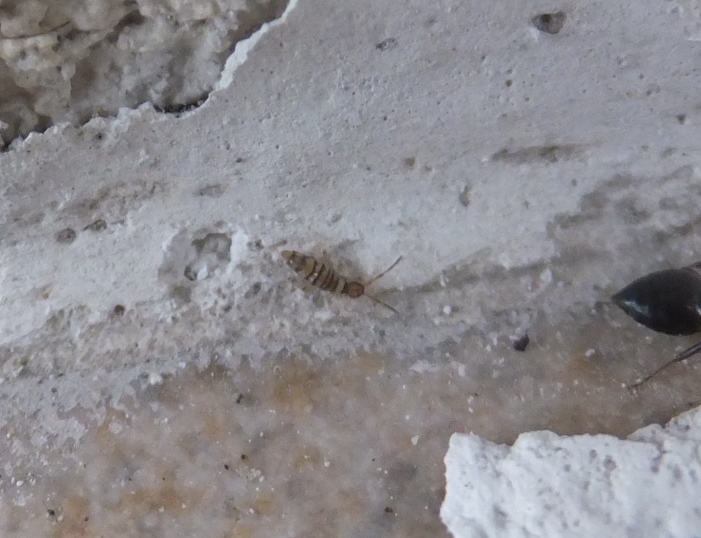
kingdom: Animalia
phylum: Arthropoda
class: Collembola
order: Entomobryomorpha
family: Entomobryidae
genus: Entomobrya
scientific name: Entomobrya multifasciata
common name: Springtail
